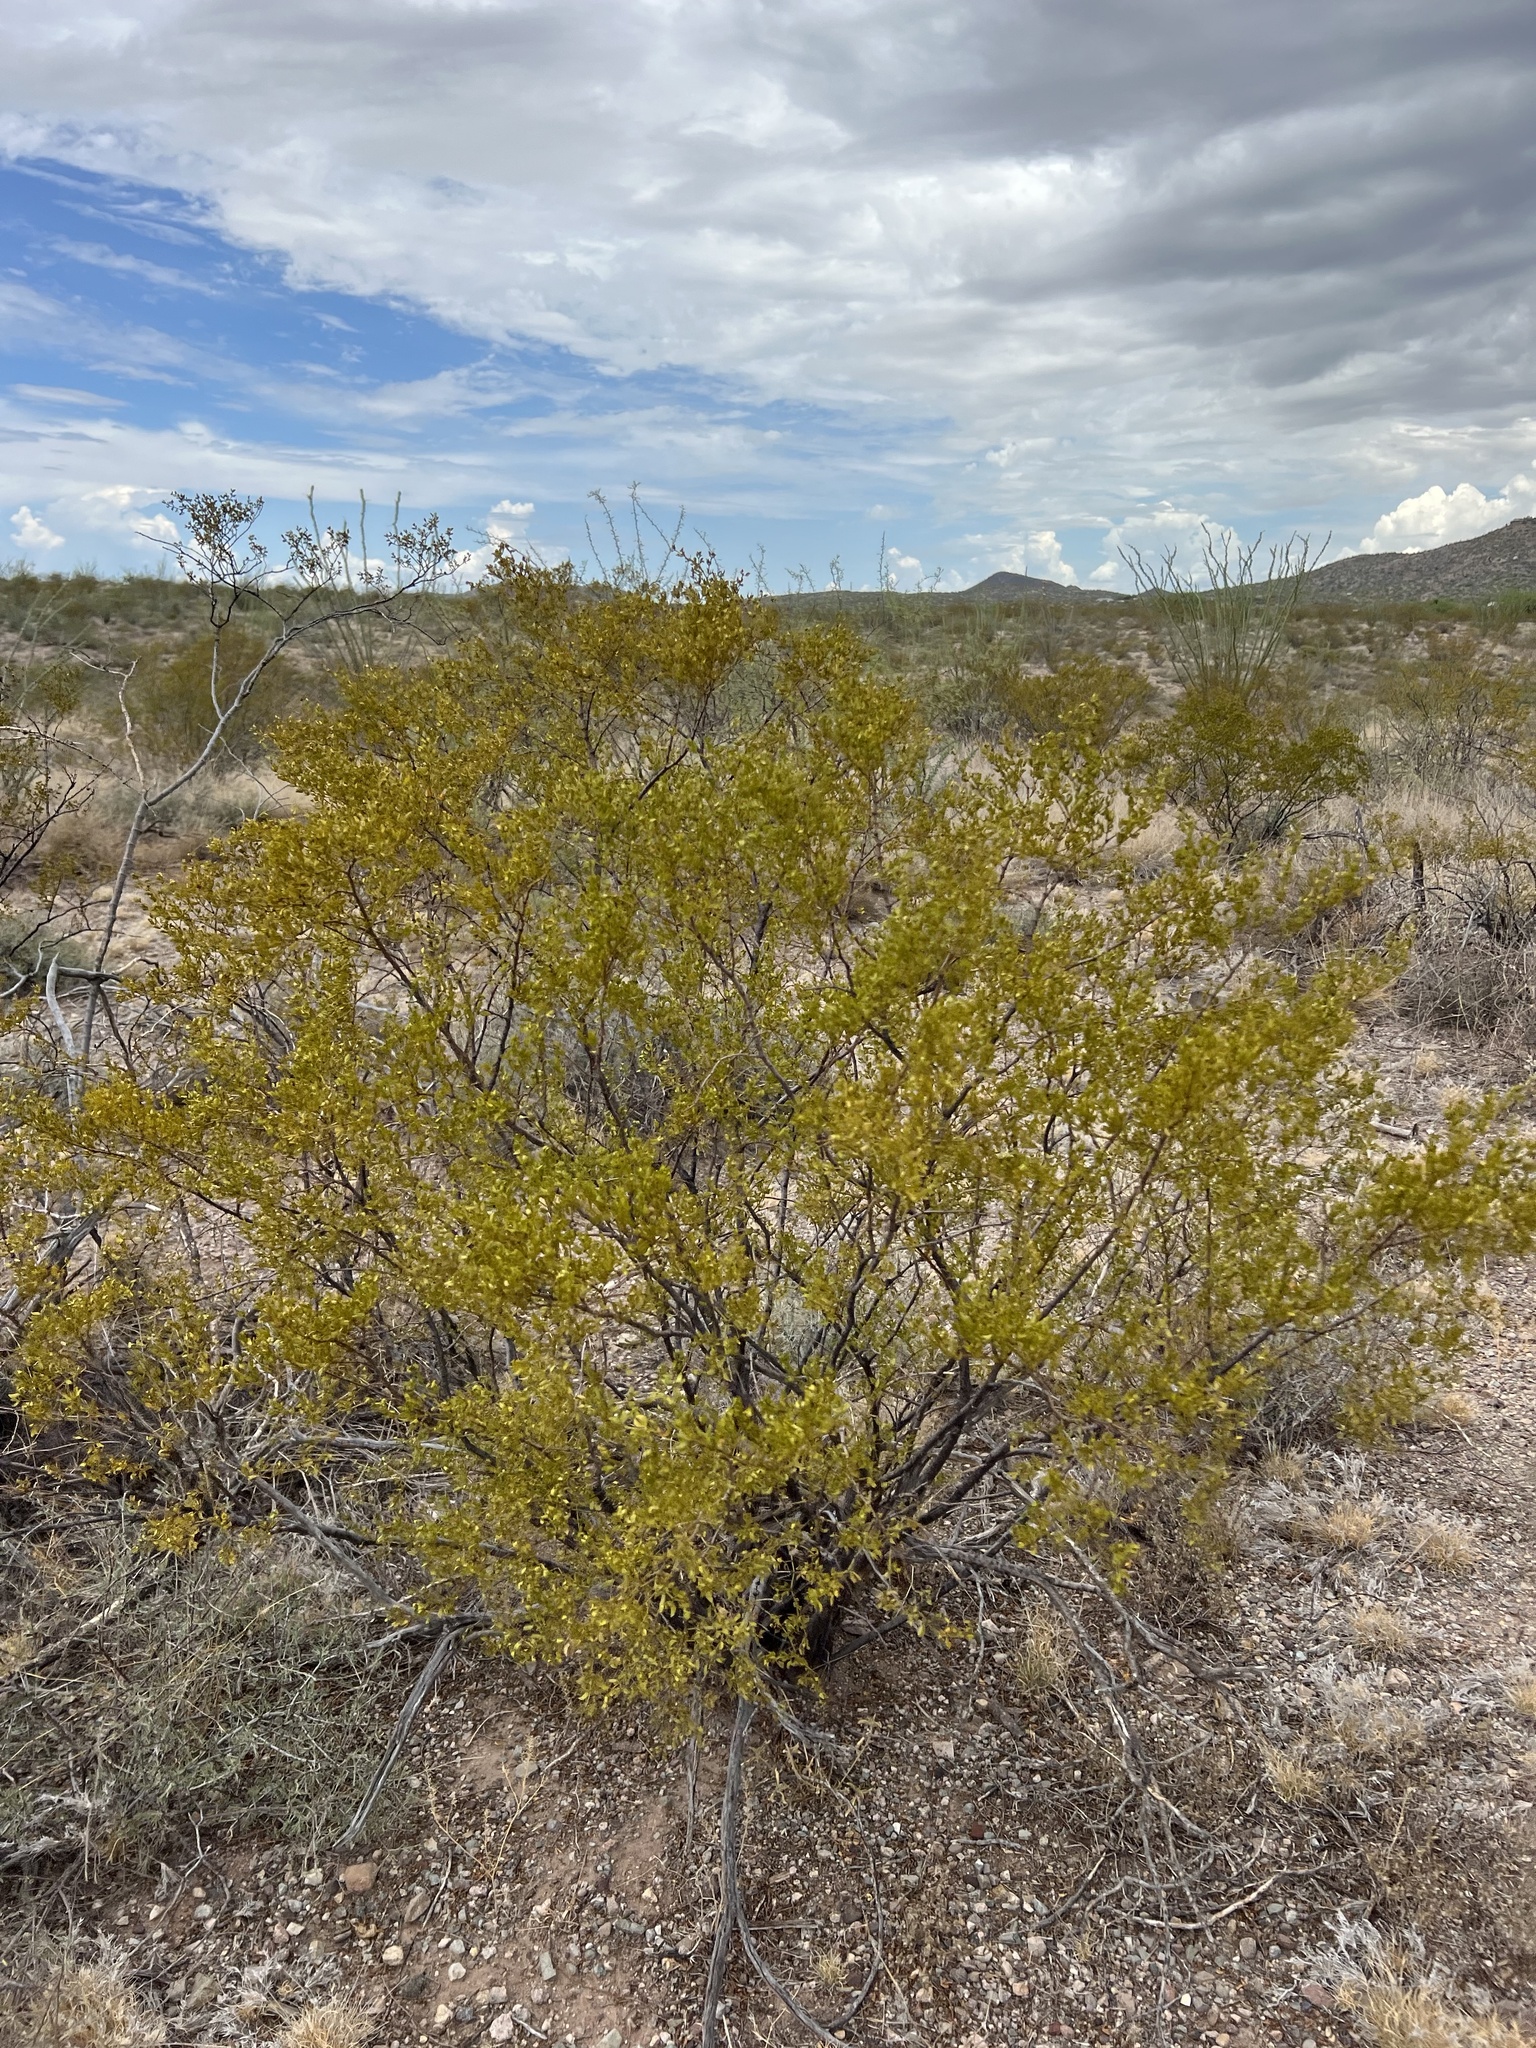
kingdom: Plantae
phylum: Tracheophyta
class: Magnoliopsida
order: Zygophyllales
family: Zygophyllaceae
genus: Larrea
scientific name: Larrea tridentata
